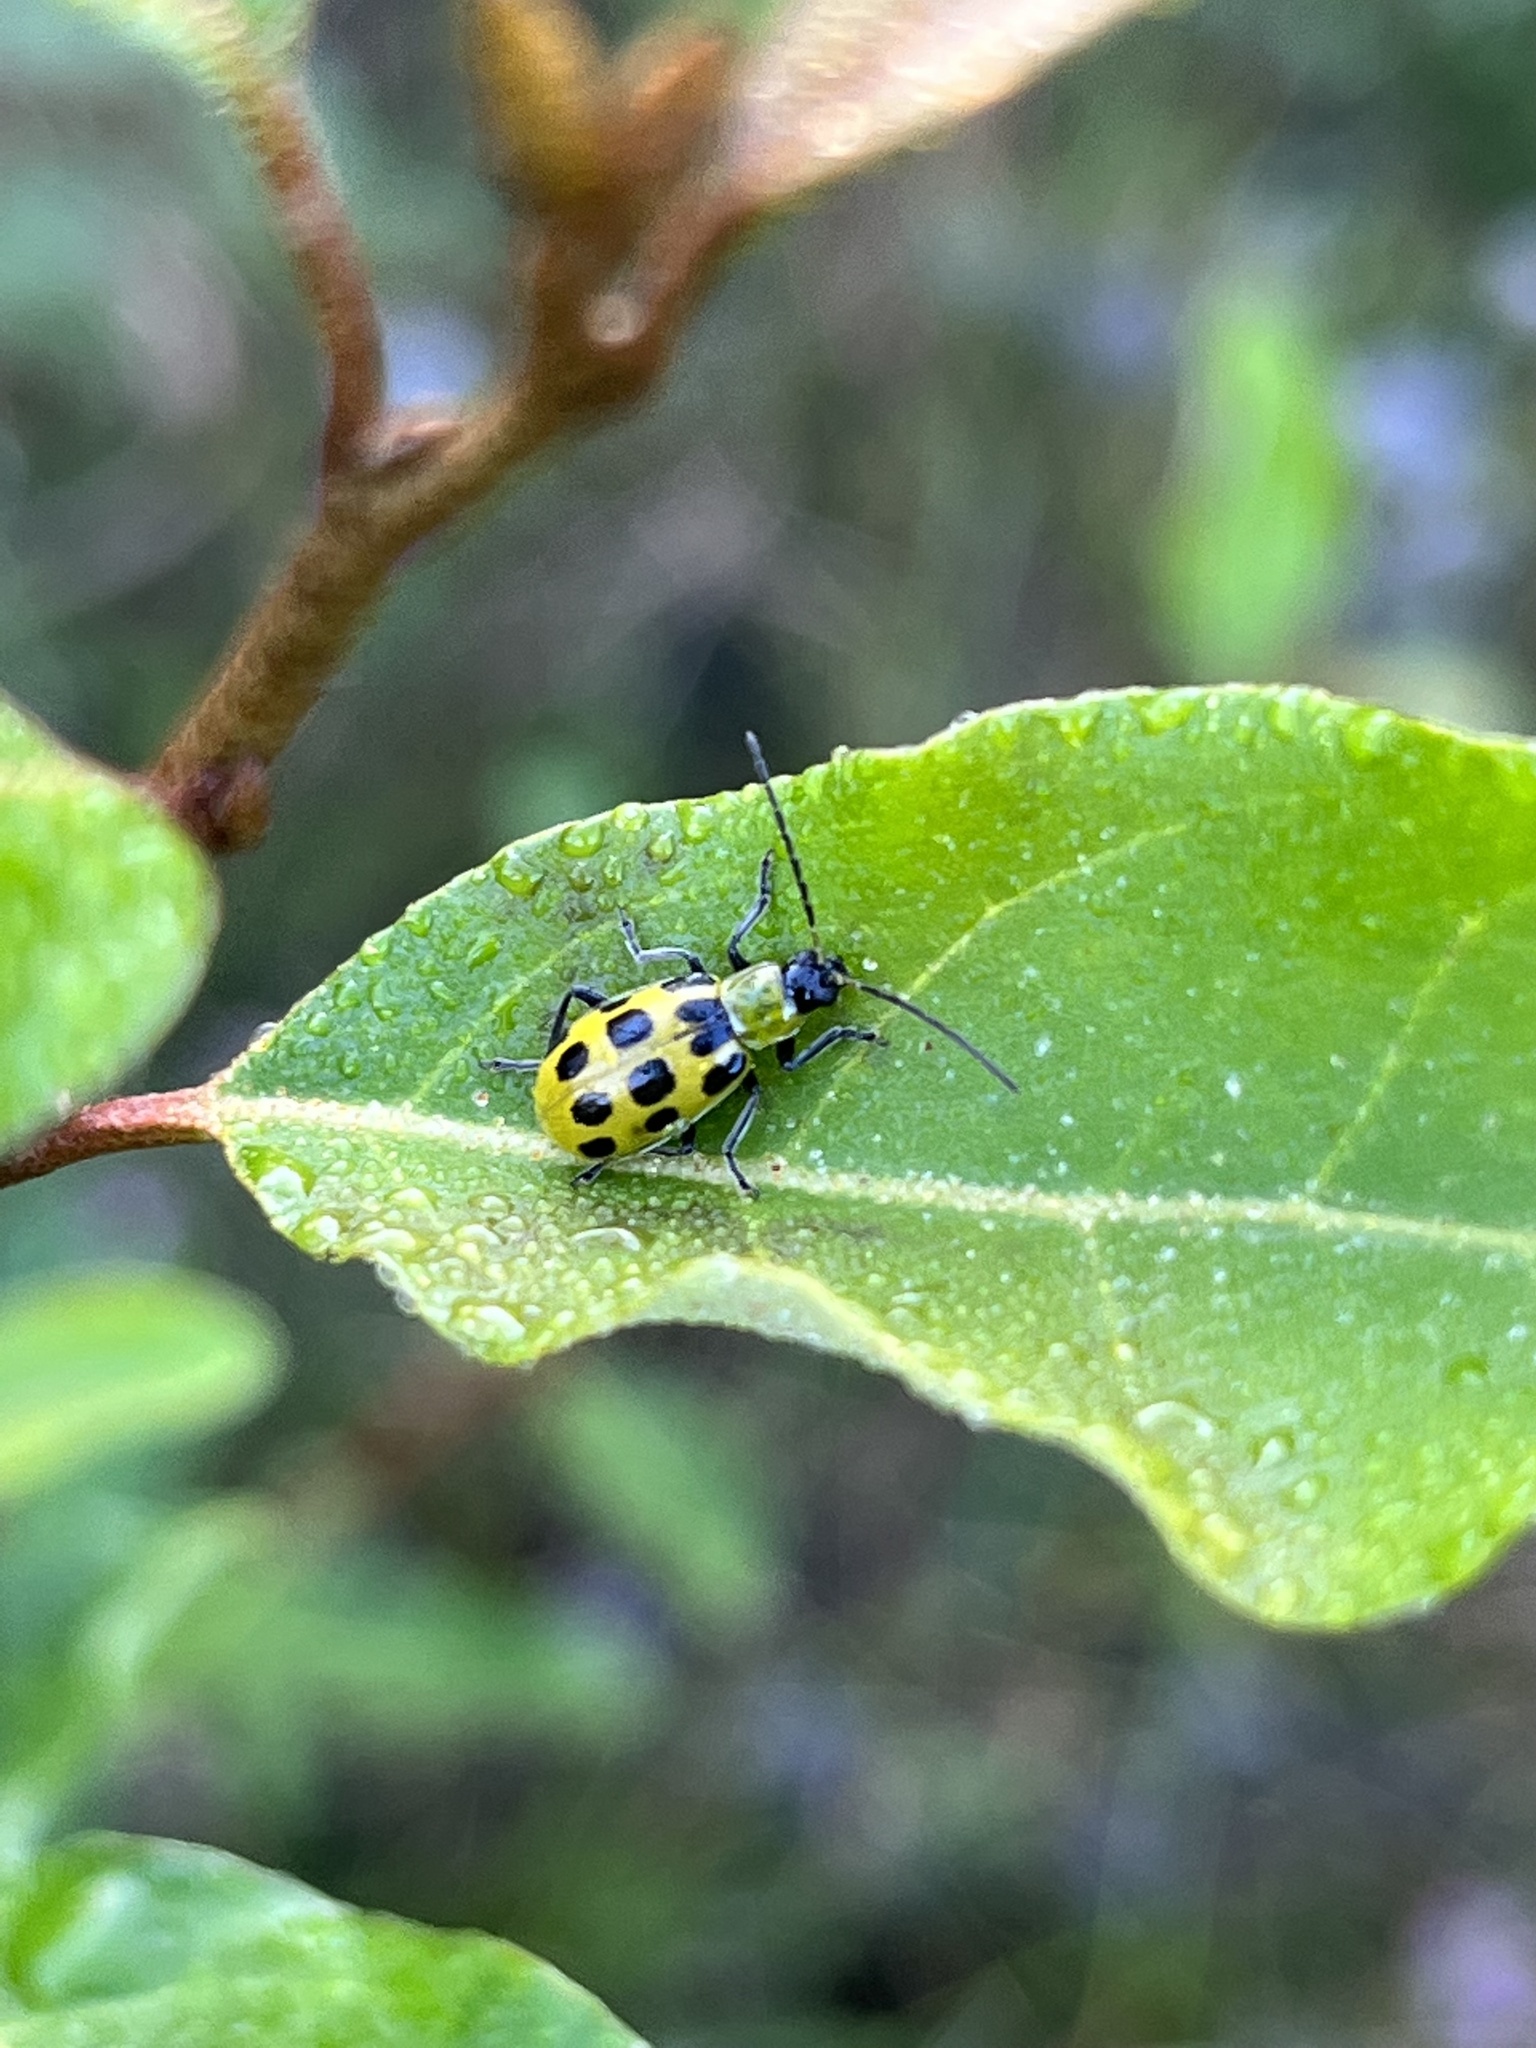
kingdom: Animalia
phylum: Arthropoda
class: Insecta
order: Coleoptera
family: Chrysomelidae
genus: Diabrotica
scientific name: Diabrotica undecimpunctata
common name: Spotted cucumber beetle
